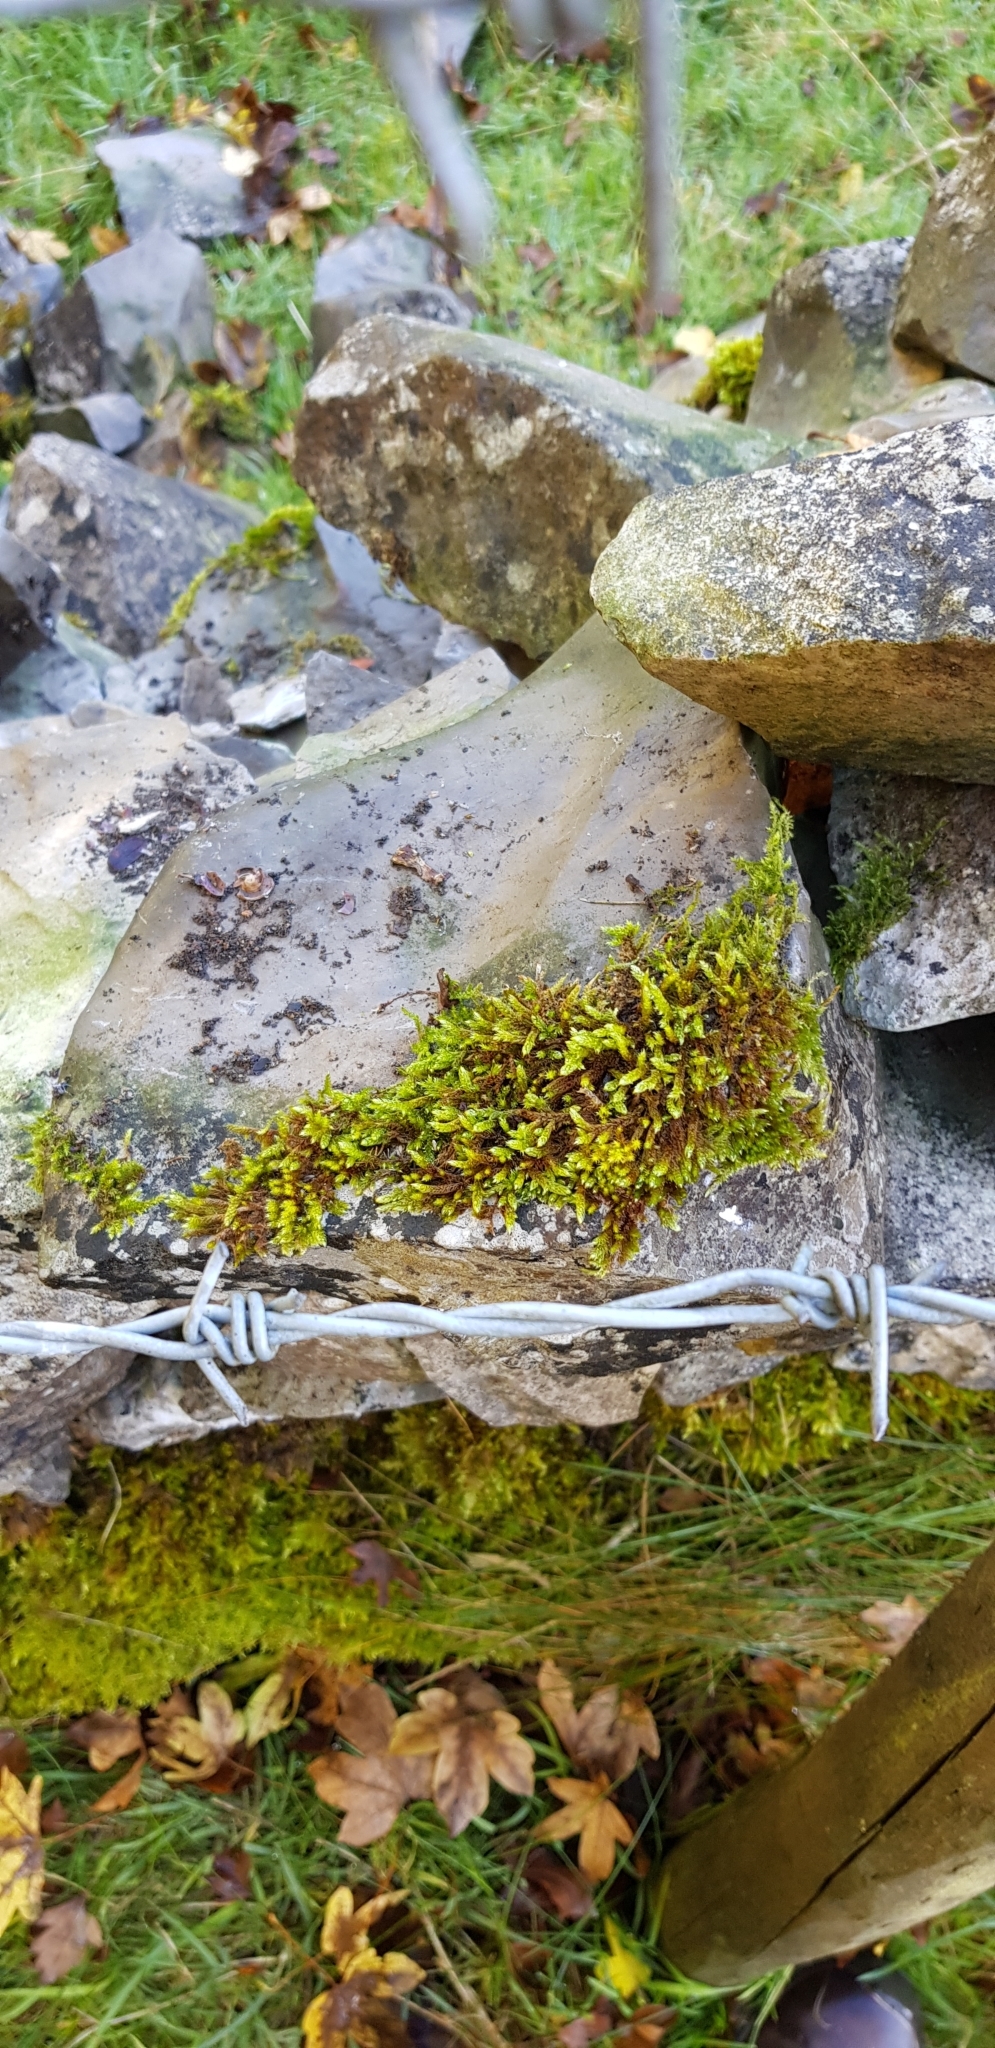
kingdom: Plantae
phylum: Bryophyta
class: Bryopsida
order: Hypnales
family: Hypnaceae
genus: Hypnum
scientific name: Hypnum cupressiforme
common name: Cypress-leaved plait-moss
